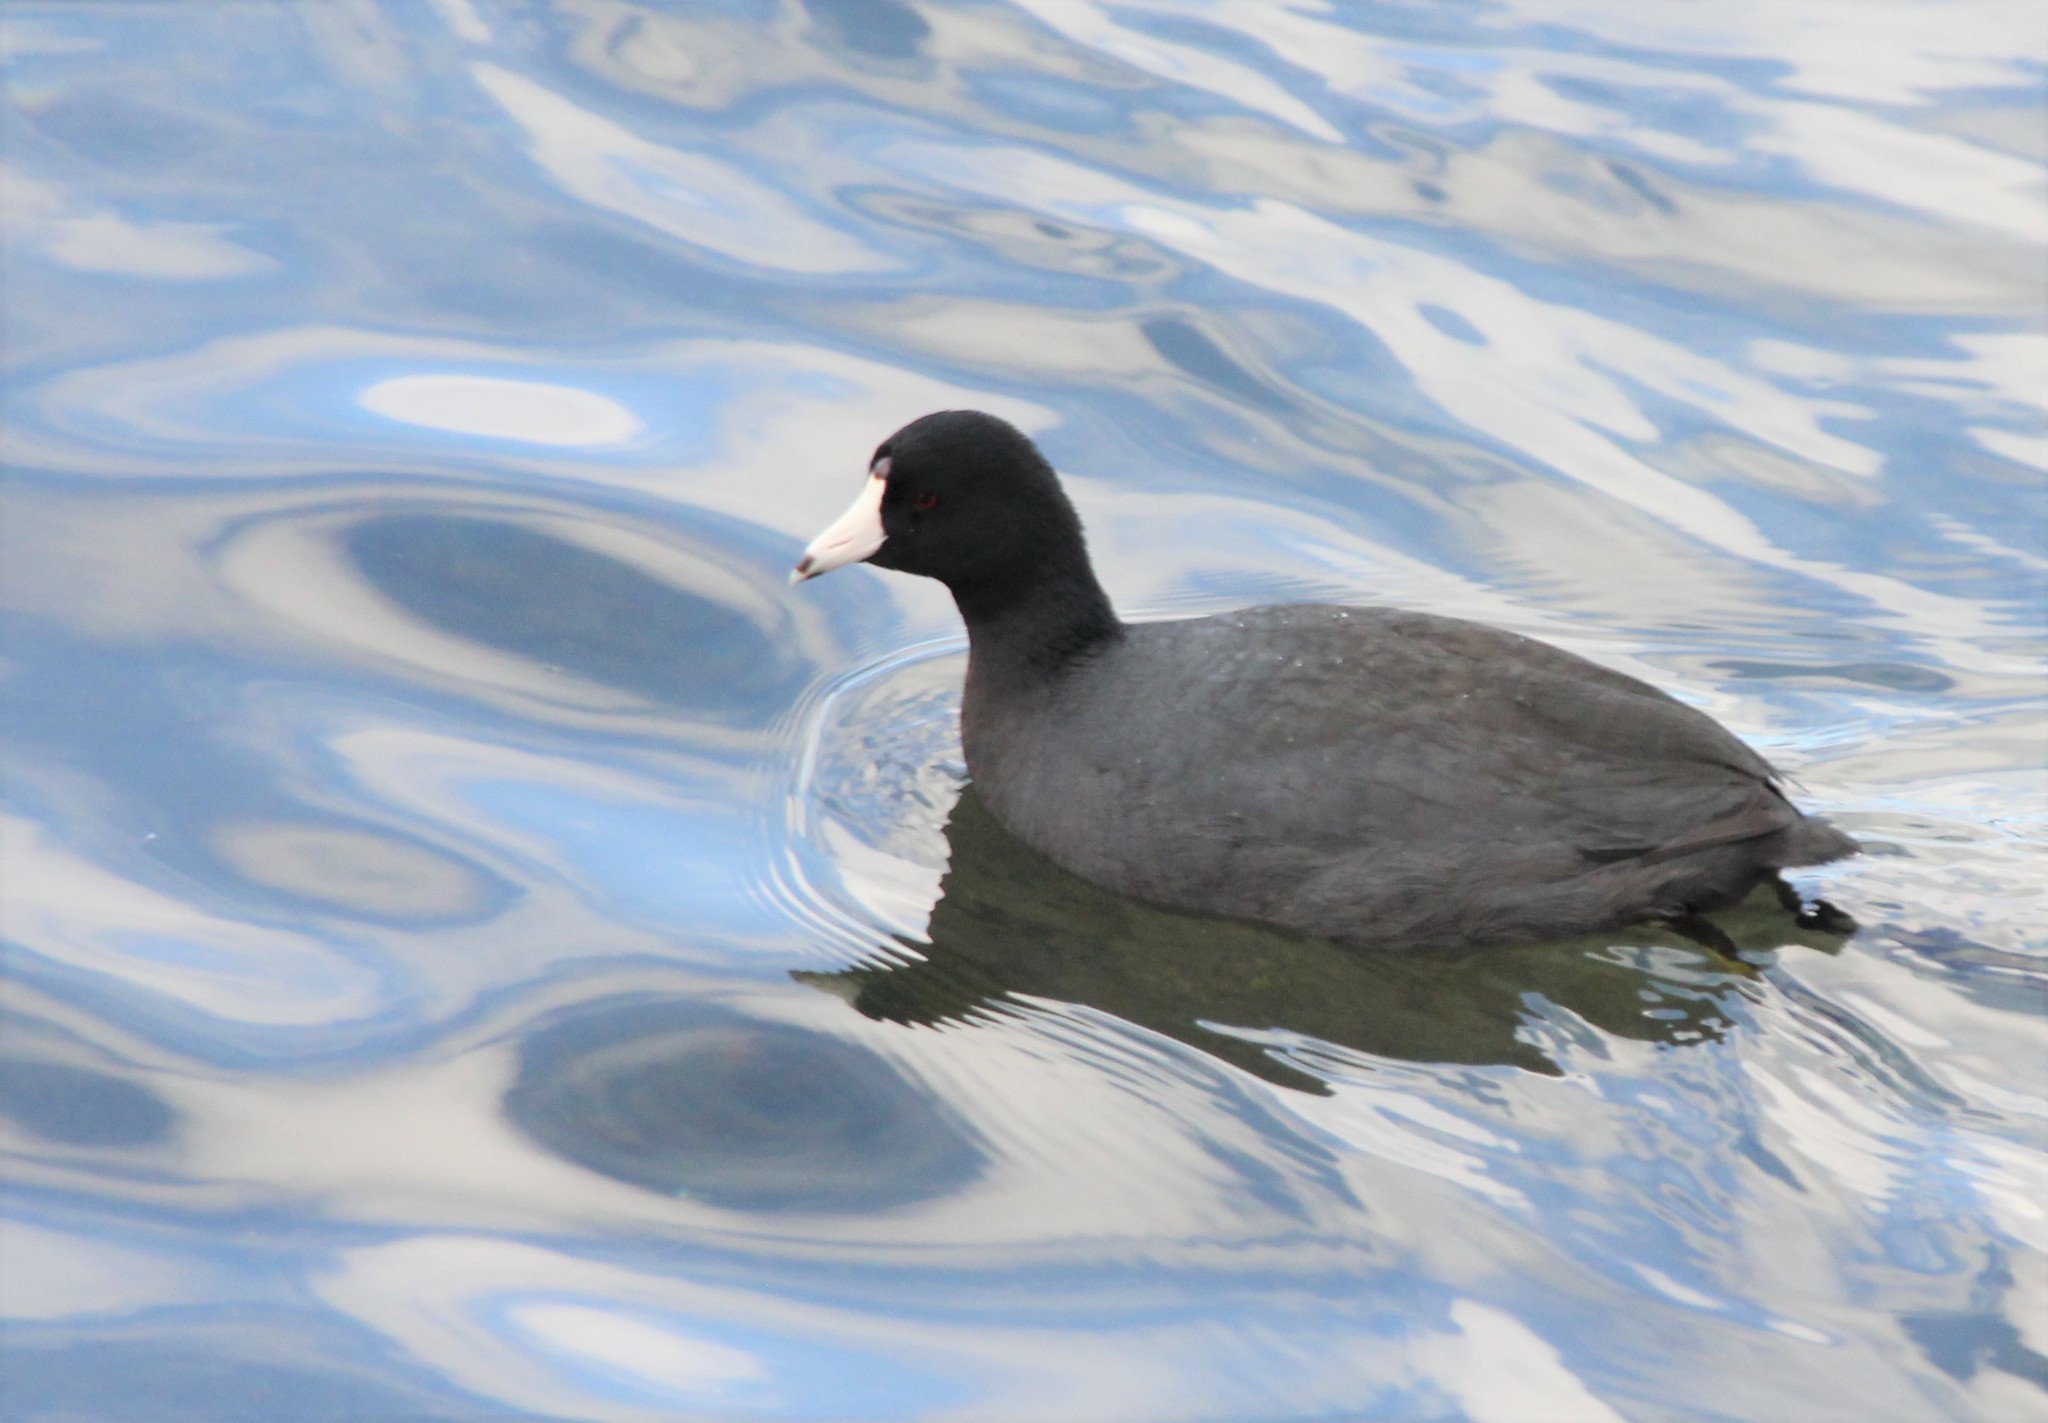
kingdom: Animalia
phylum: Chordata
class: Aves
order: Gruiformes
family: Rallidae
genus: Fulica
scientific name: Fulica americana
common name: American coot
